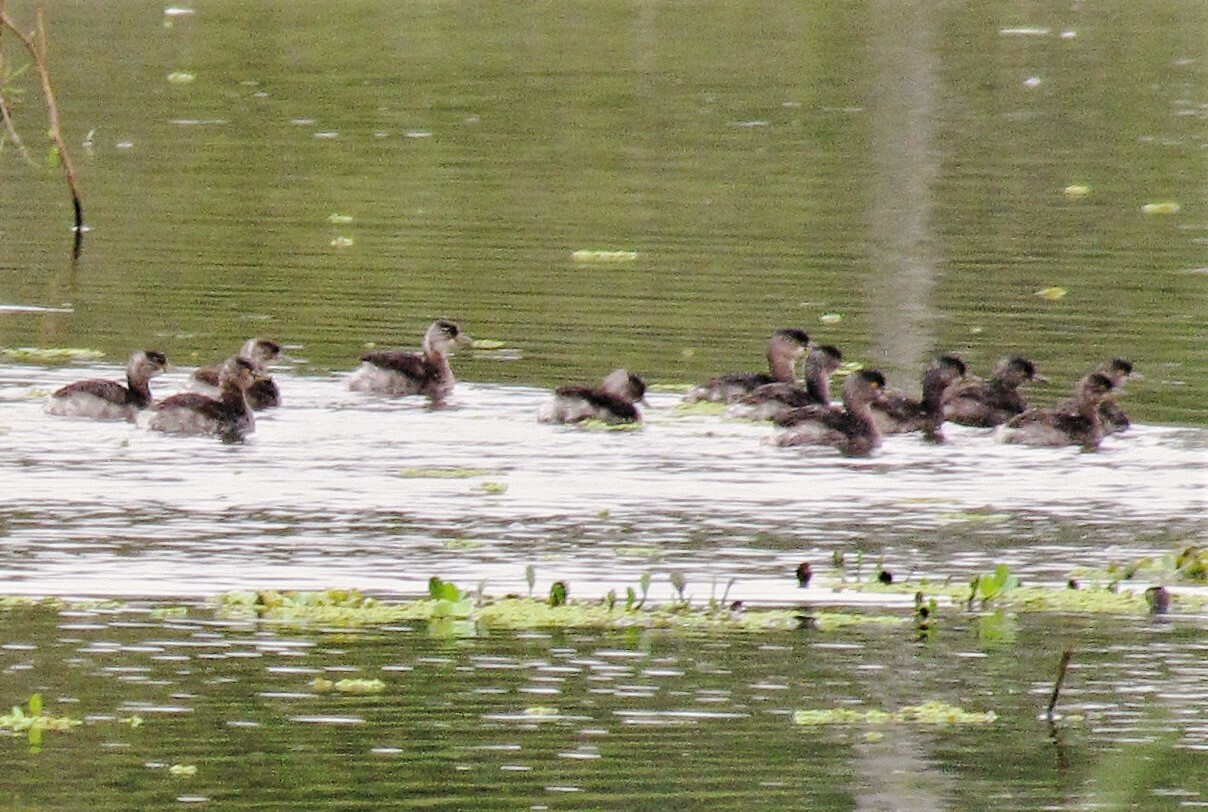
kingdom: Animalia
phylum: Chordata
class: Aves
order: Podicipediformes
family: Podicipedidae
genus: Tachybaptus
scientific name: Tachybaptus dominicus
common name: Least grebe
